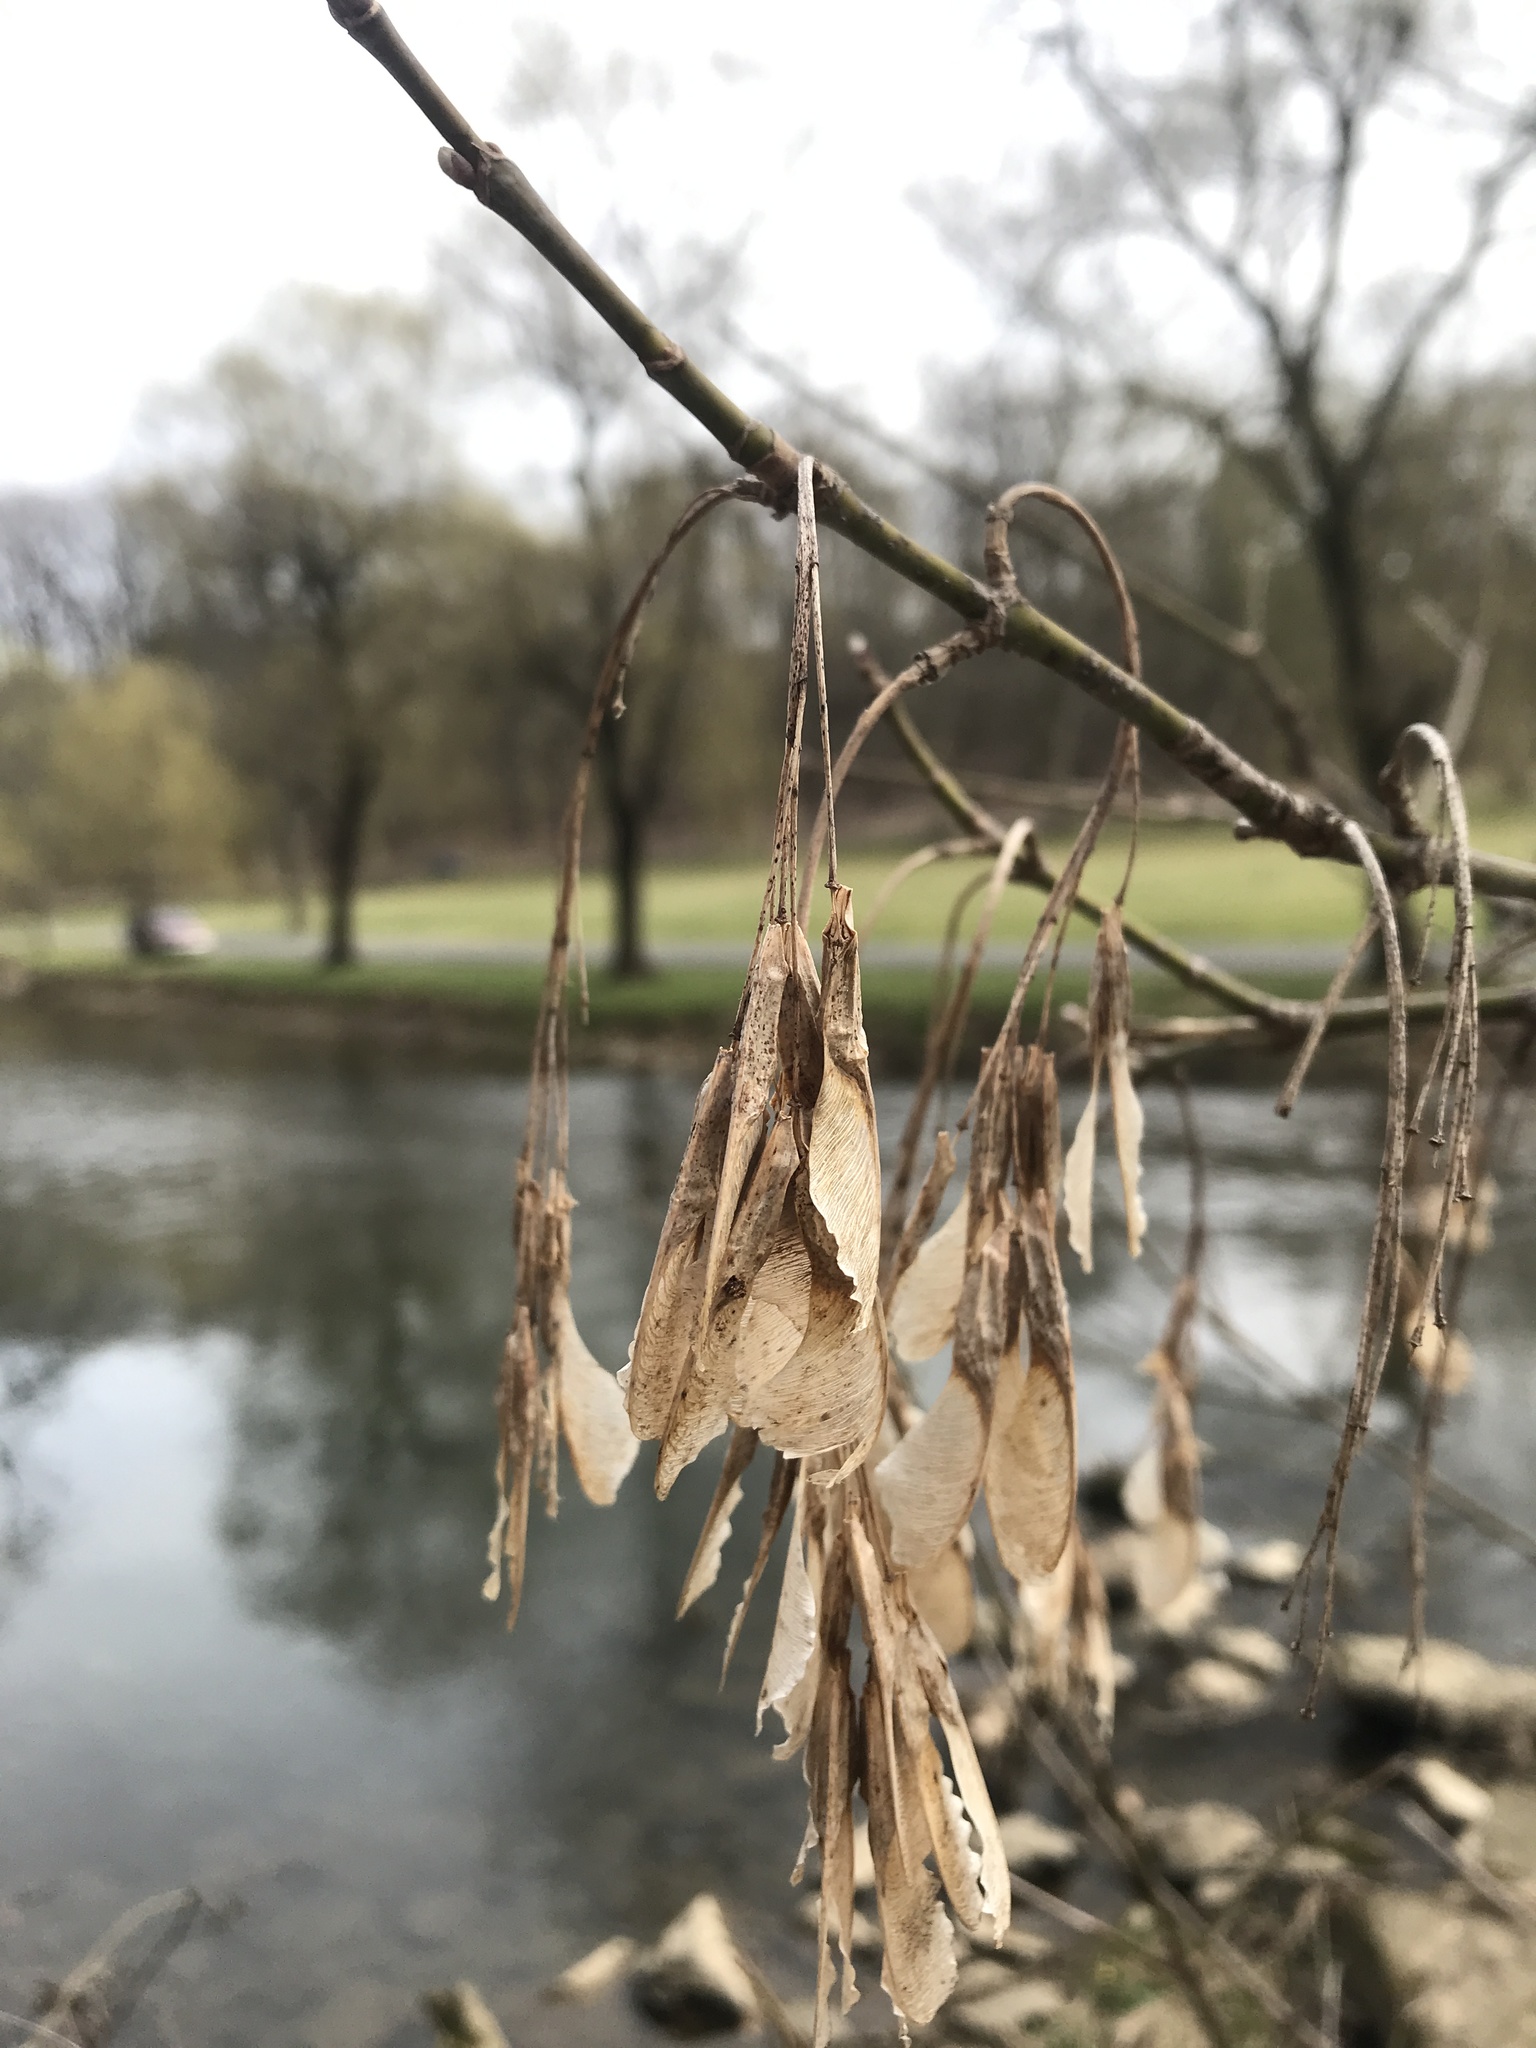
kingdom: Plantae
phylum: Tracheophyta
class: Magnoliopsida
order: Sapindales
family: Sapindaceae
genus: Acer
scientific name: Acer negundo
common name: Ashleaf maple
